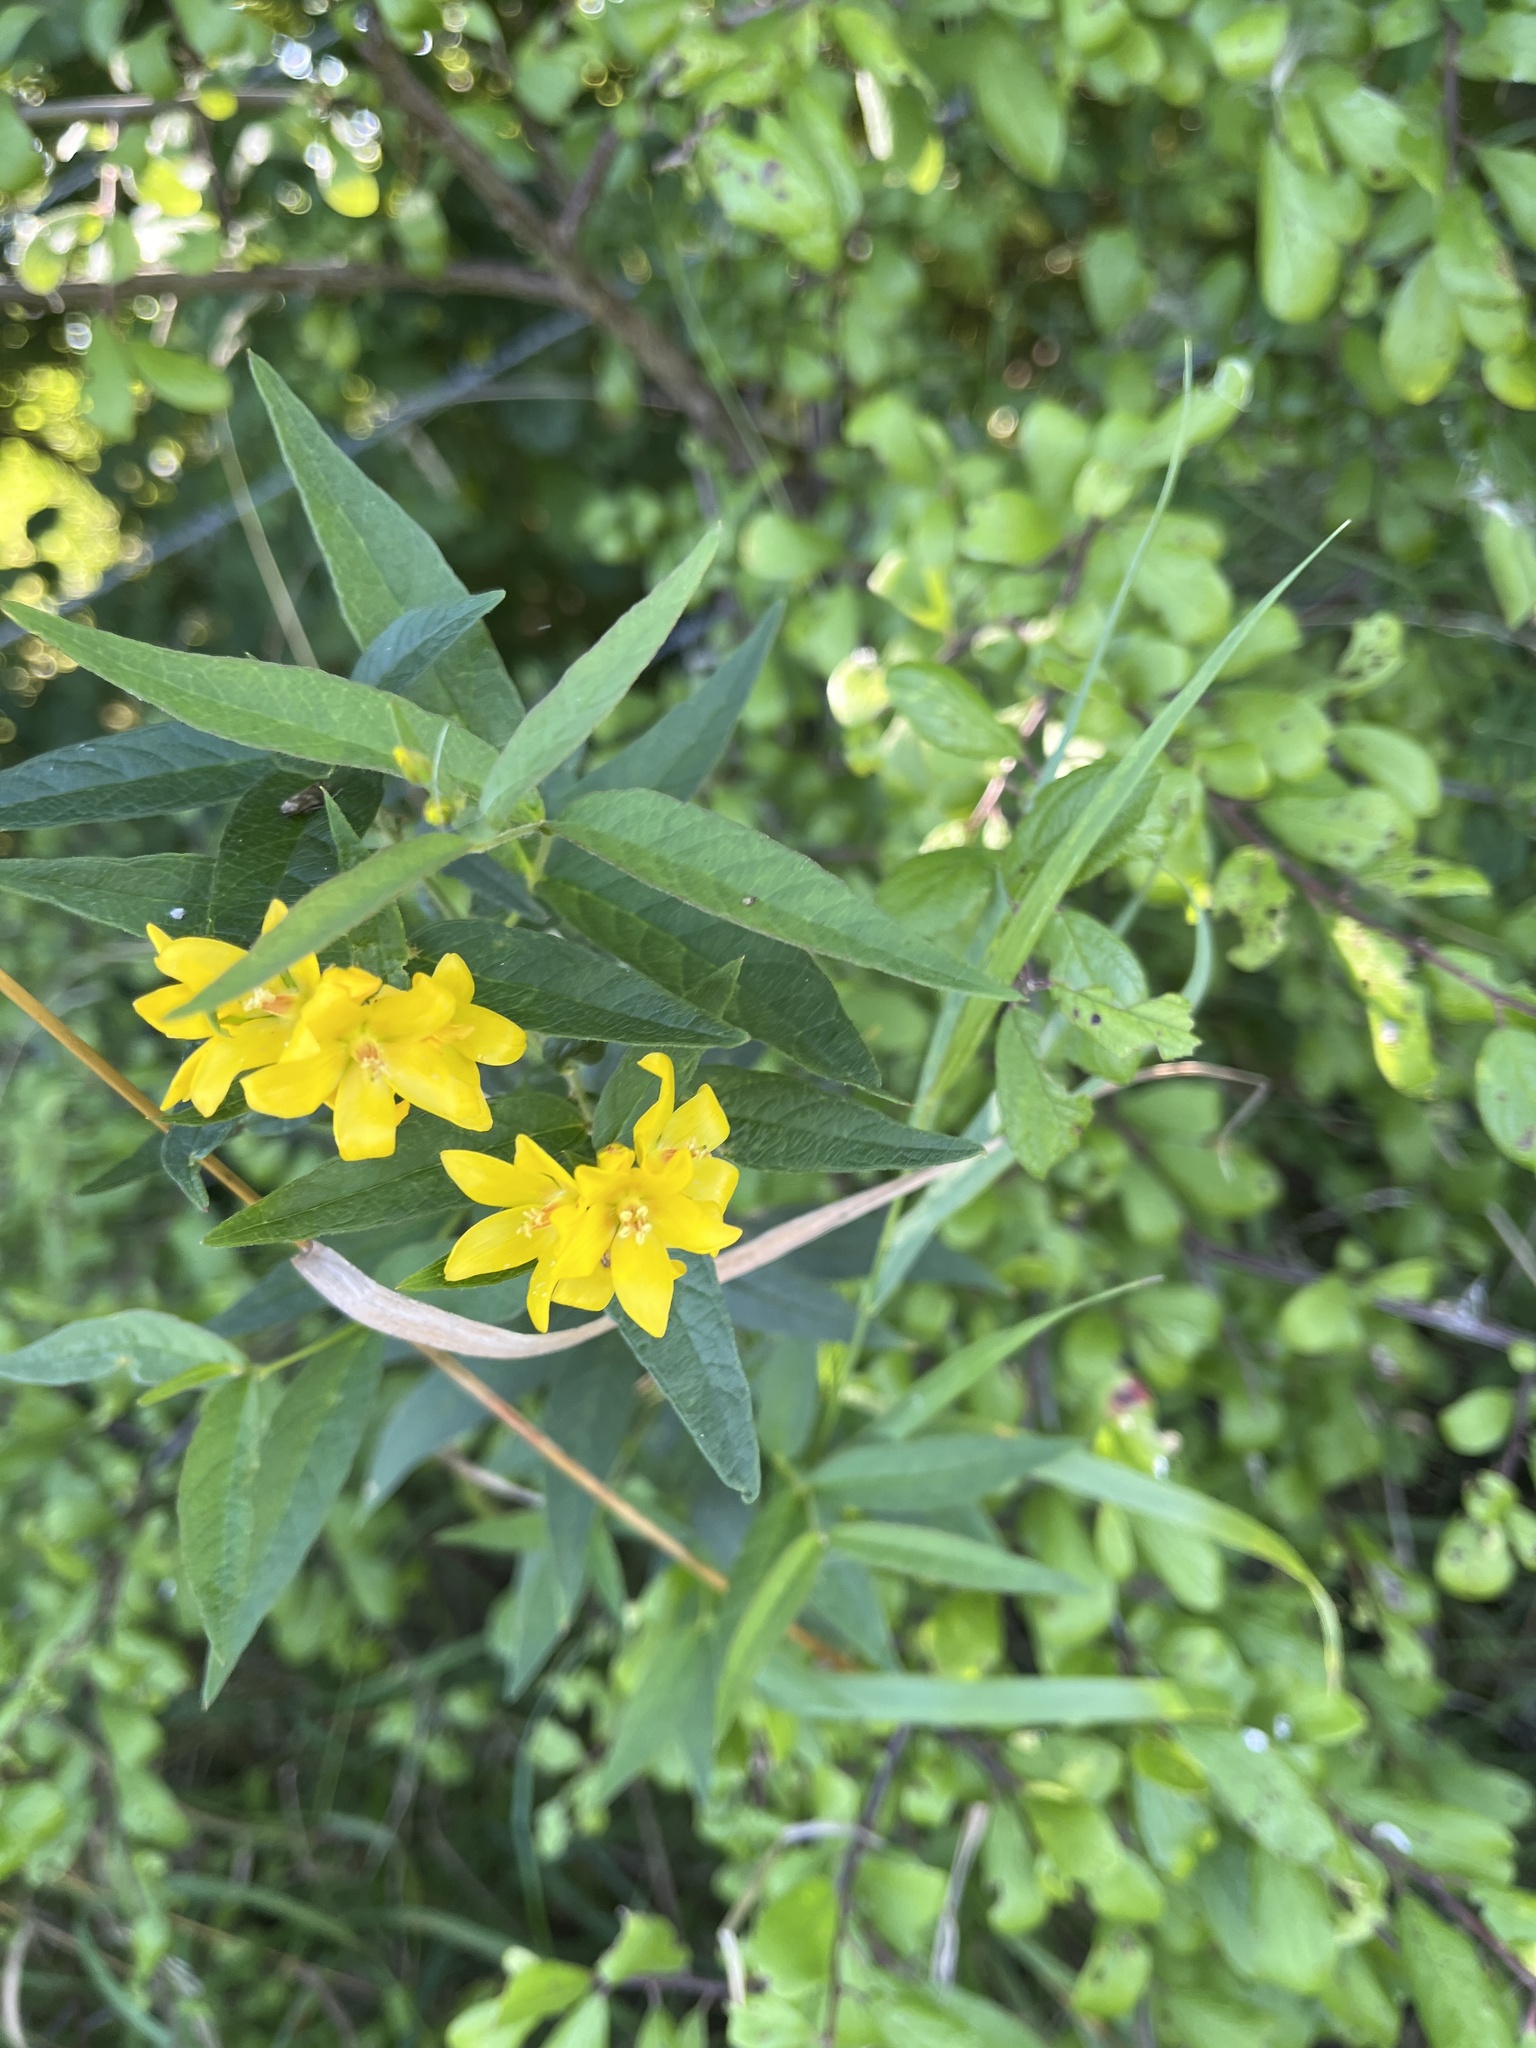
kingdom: Plantae
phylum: Tracheophyta
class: Magnoliopsida
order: Ericales
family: Primulaceae
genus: Lysimachia
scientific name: Lysimachia vulgaris
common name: Yellow loosestrife
